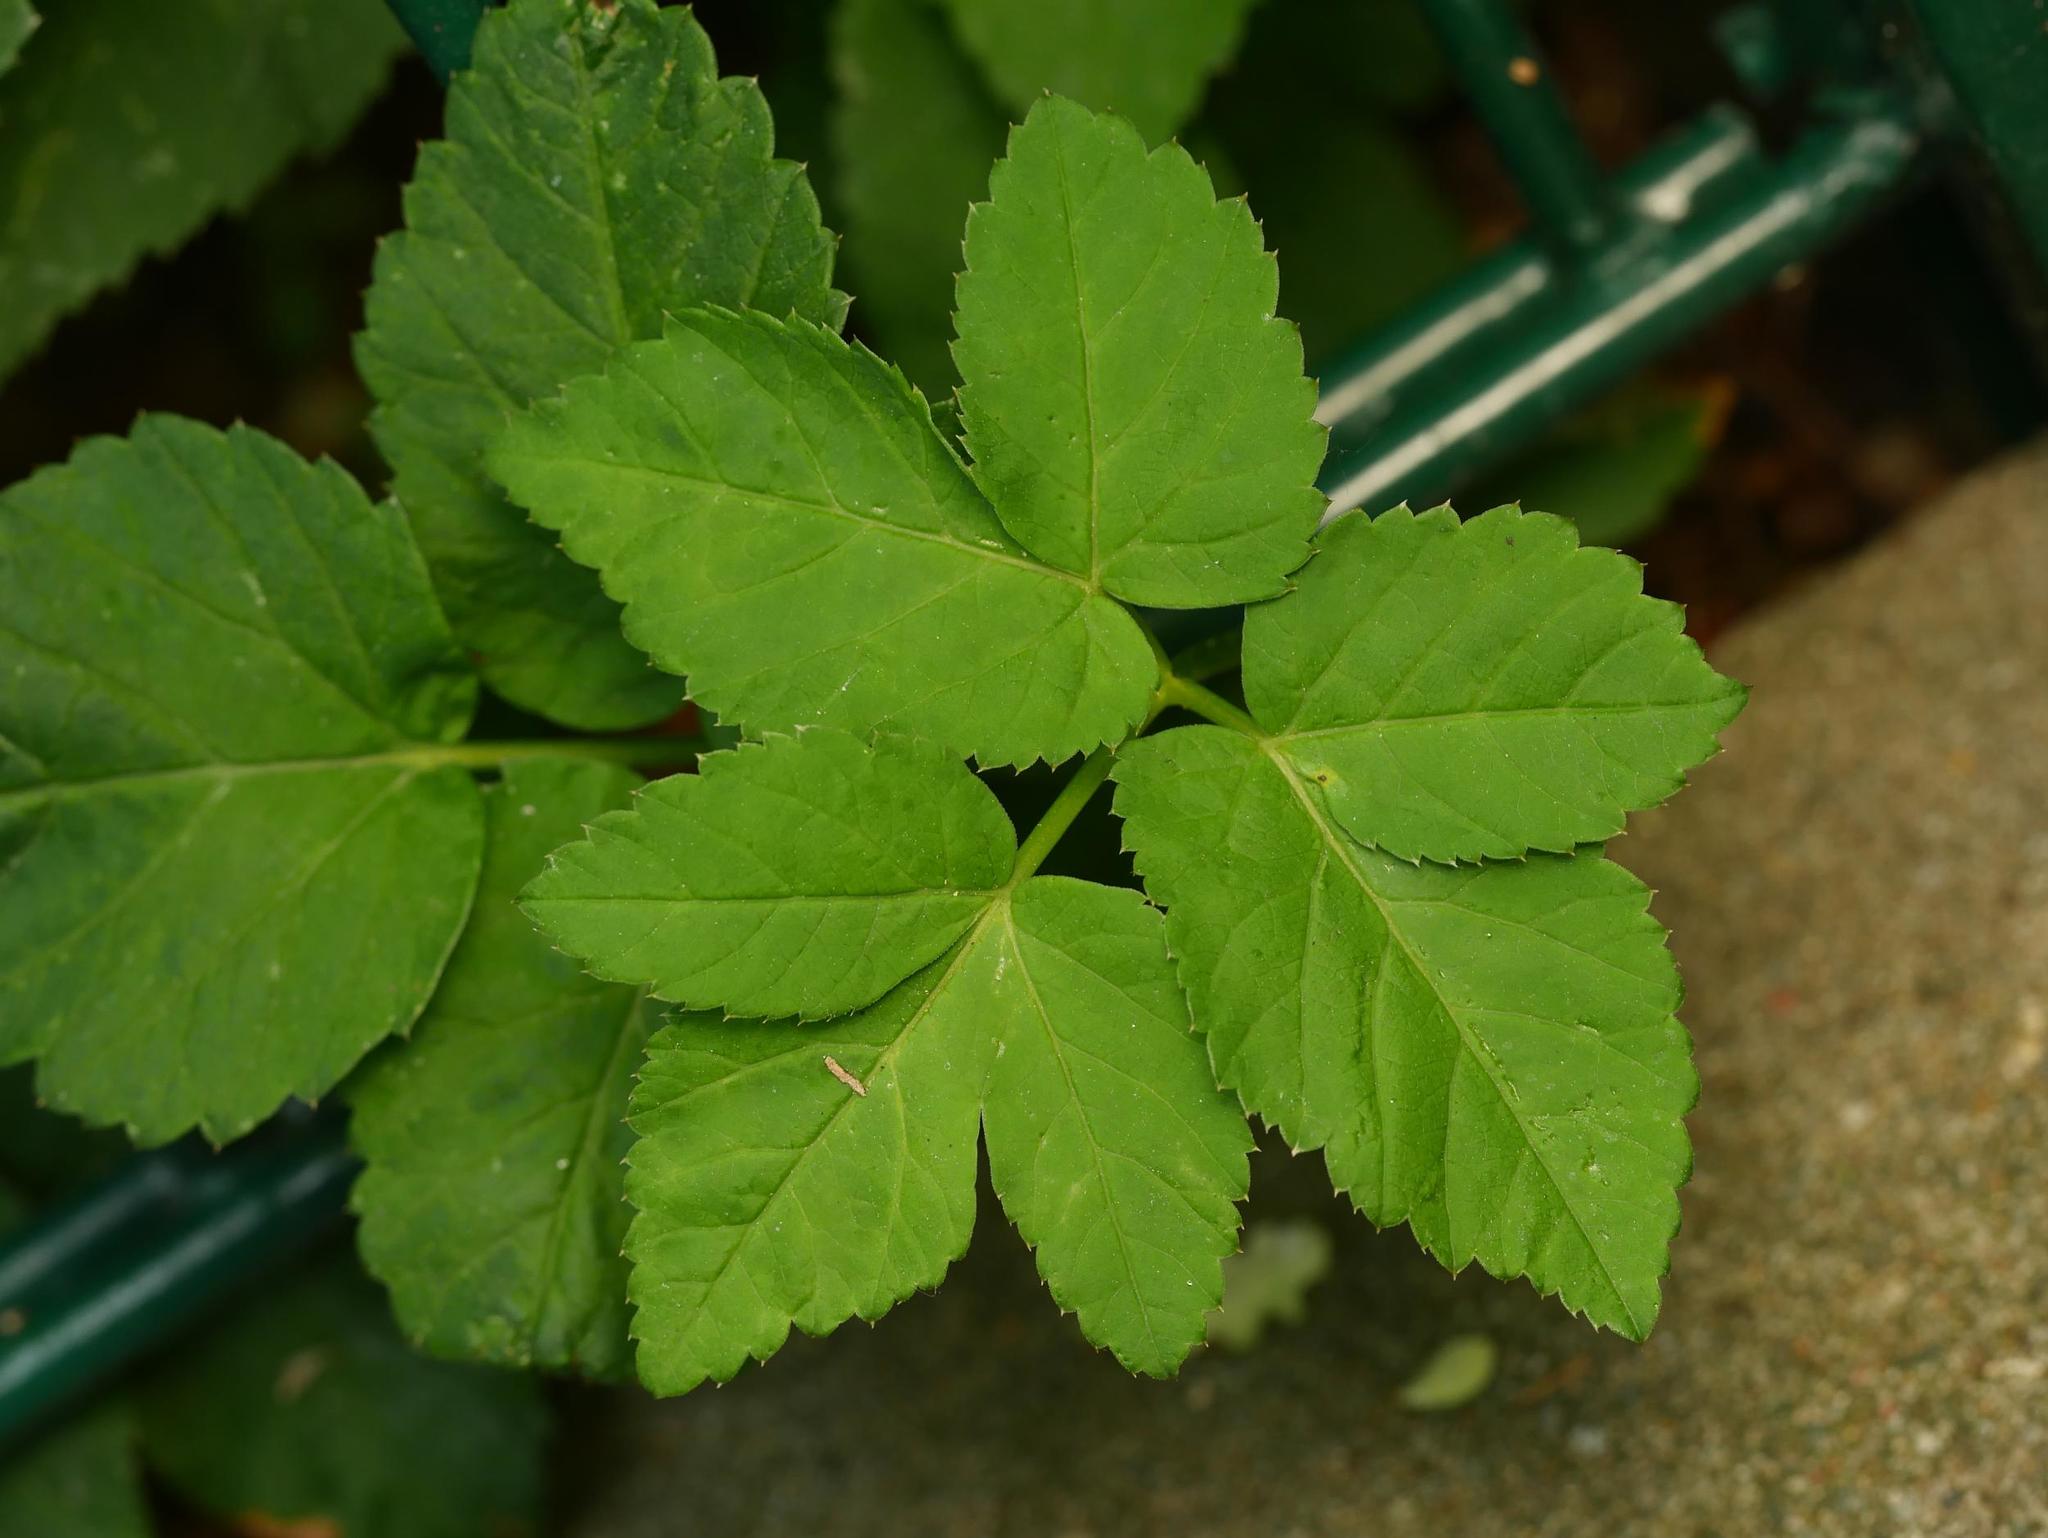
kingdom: Plantae
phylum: Tracheophyta
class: Magnoliopsida
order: Apiales
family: Apiaceae
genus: Aegopodium
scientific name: Aegopodium podagraria
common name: Ground-elder
